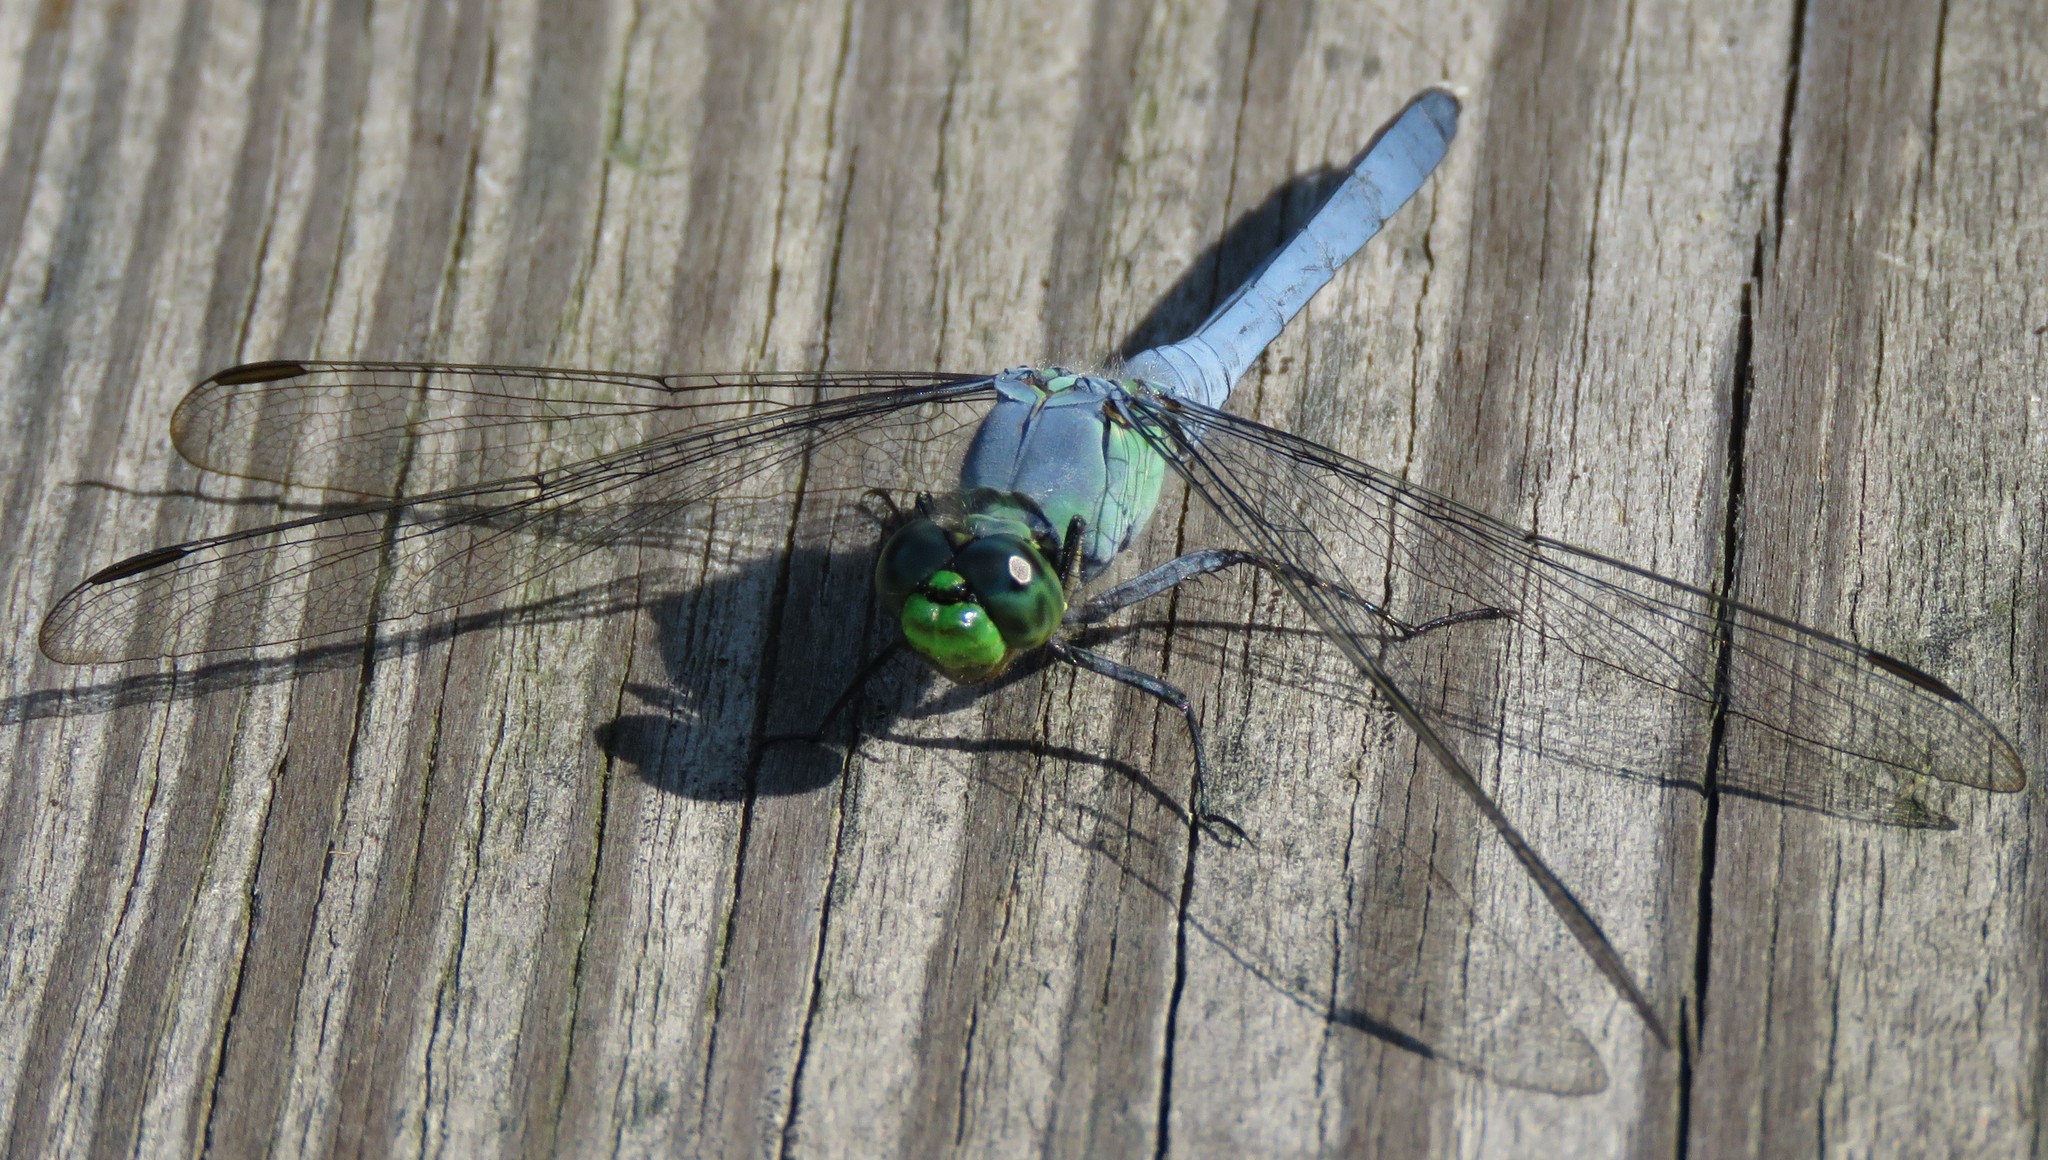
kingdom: Animalia
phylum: Arthropoda
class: Insecta
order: Odonata
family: Libellulidae
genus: Erythemis
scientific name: Erythemis simplicicollis
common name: Eastern pondhawk
